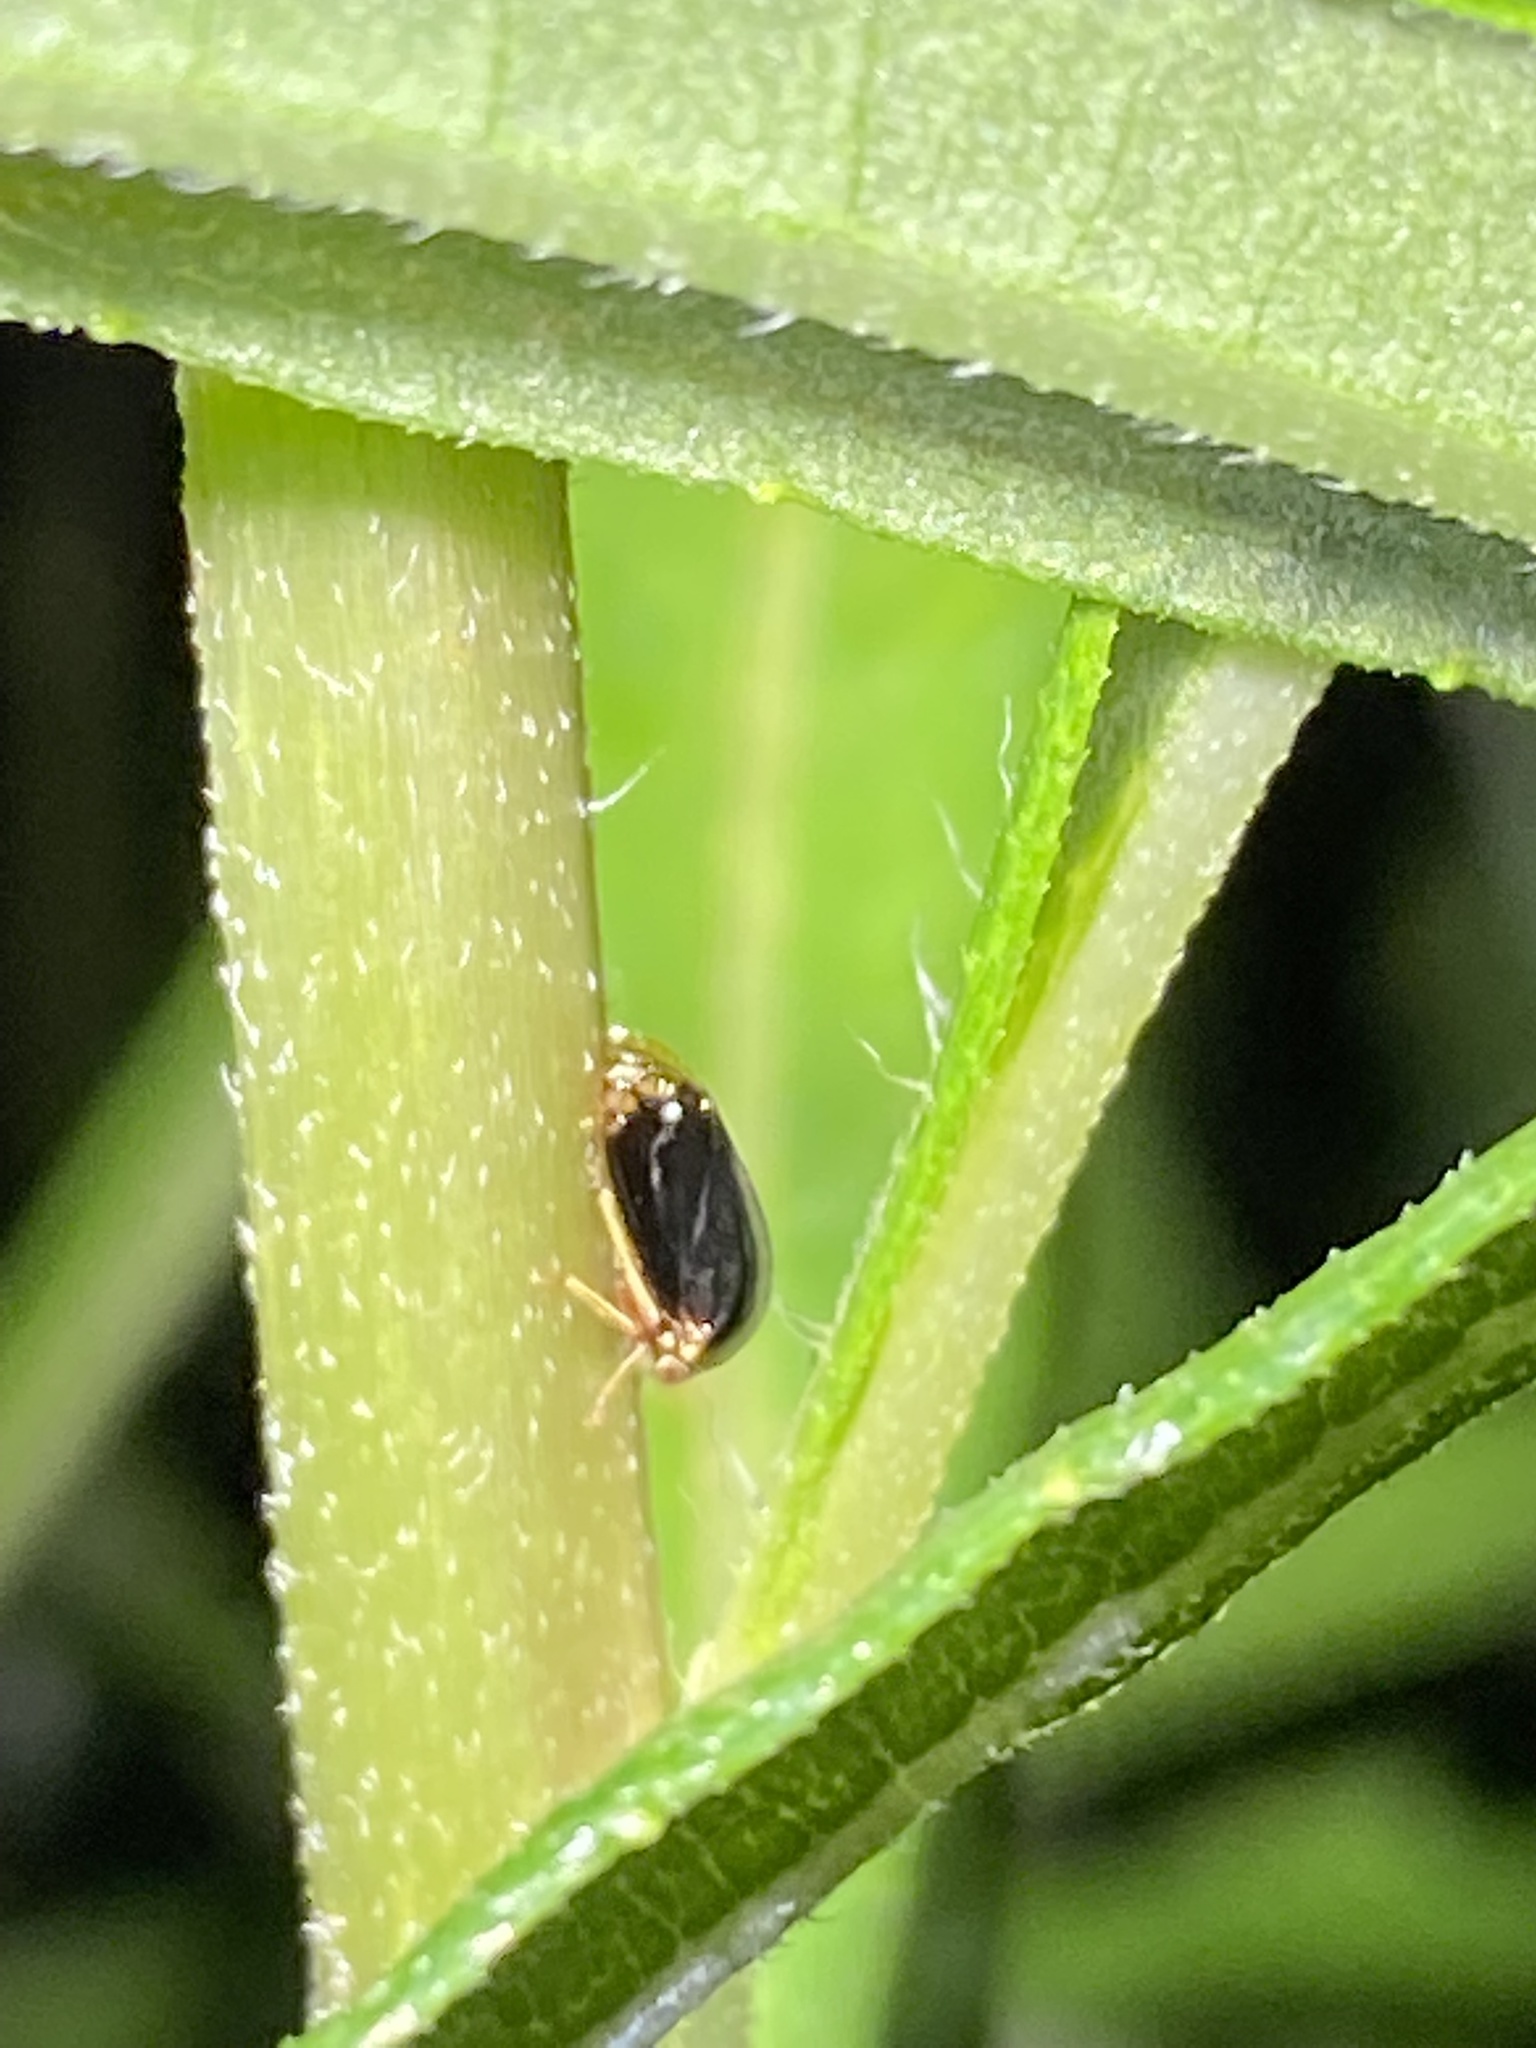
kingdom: Animalia
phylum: Arthropoda
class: Insecta
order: Hemiptera
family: Membracidae
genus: Acutalis
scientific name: Acutalis tartarea
